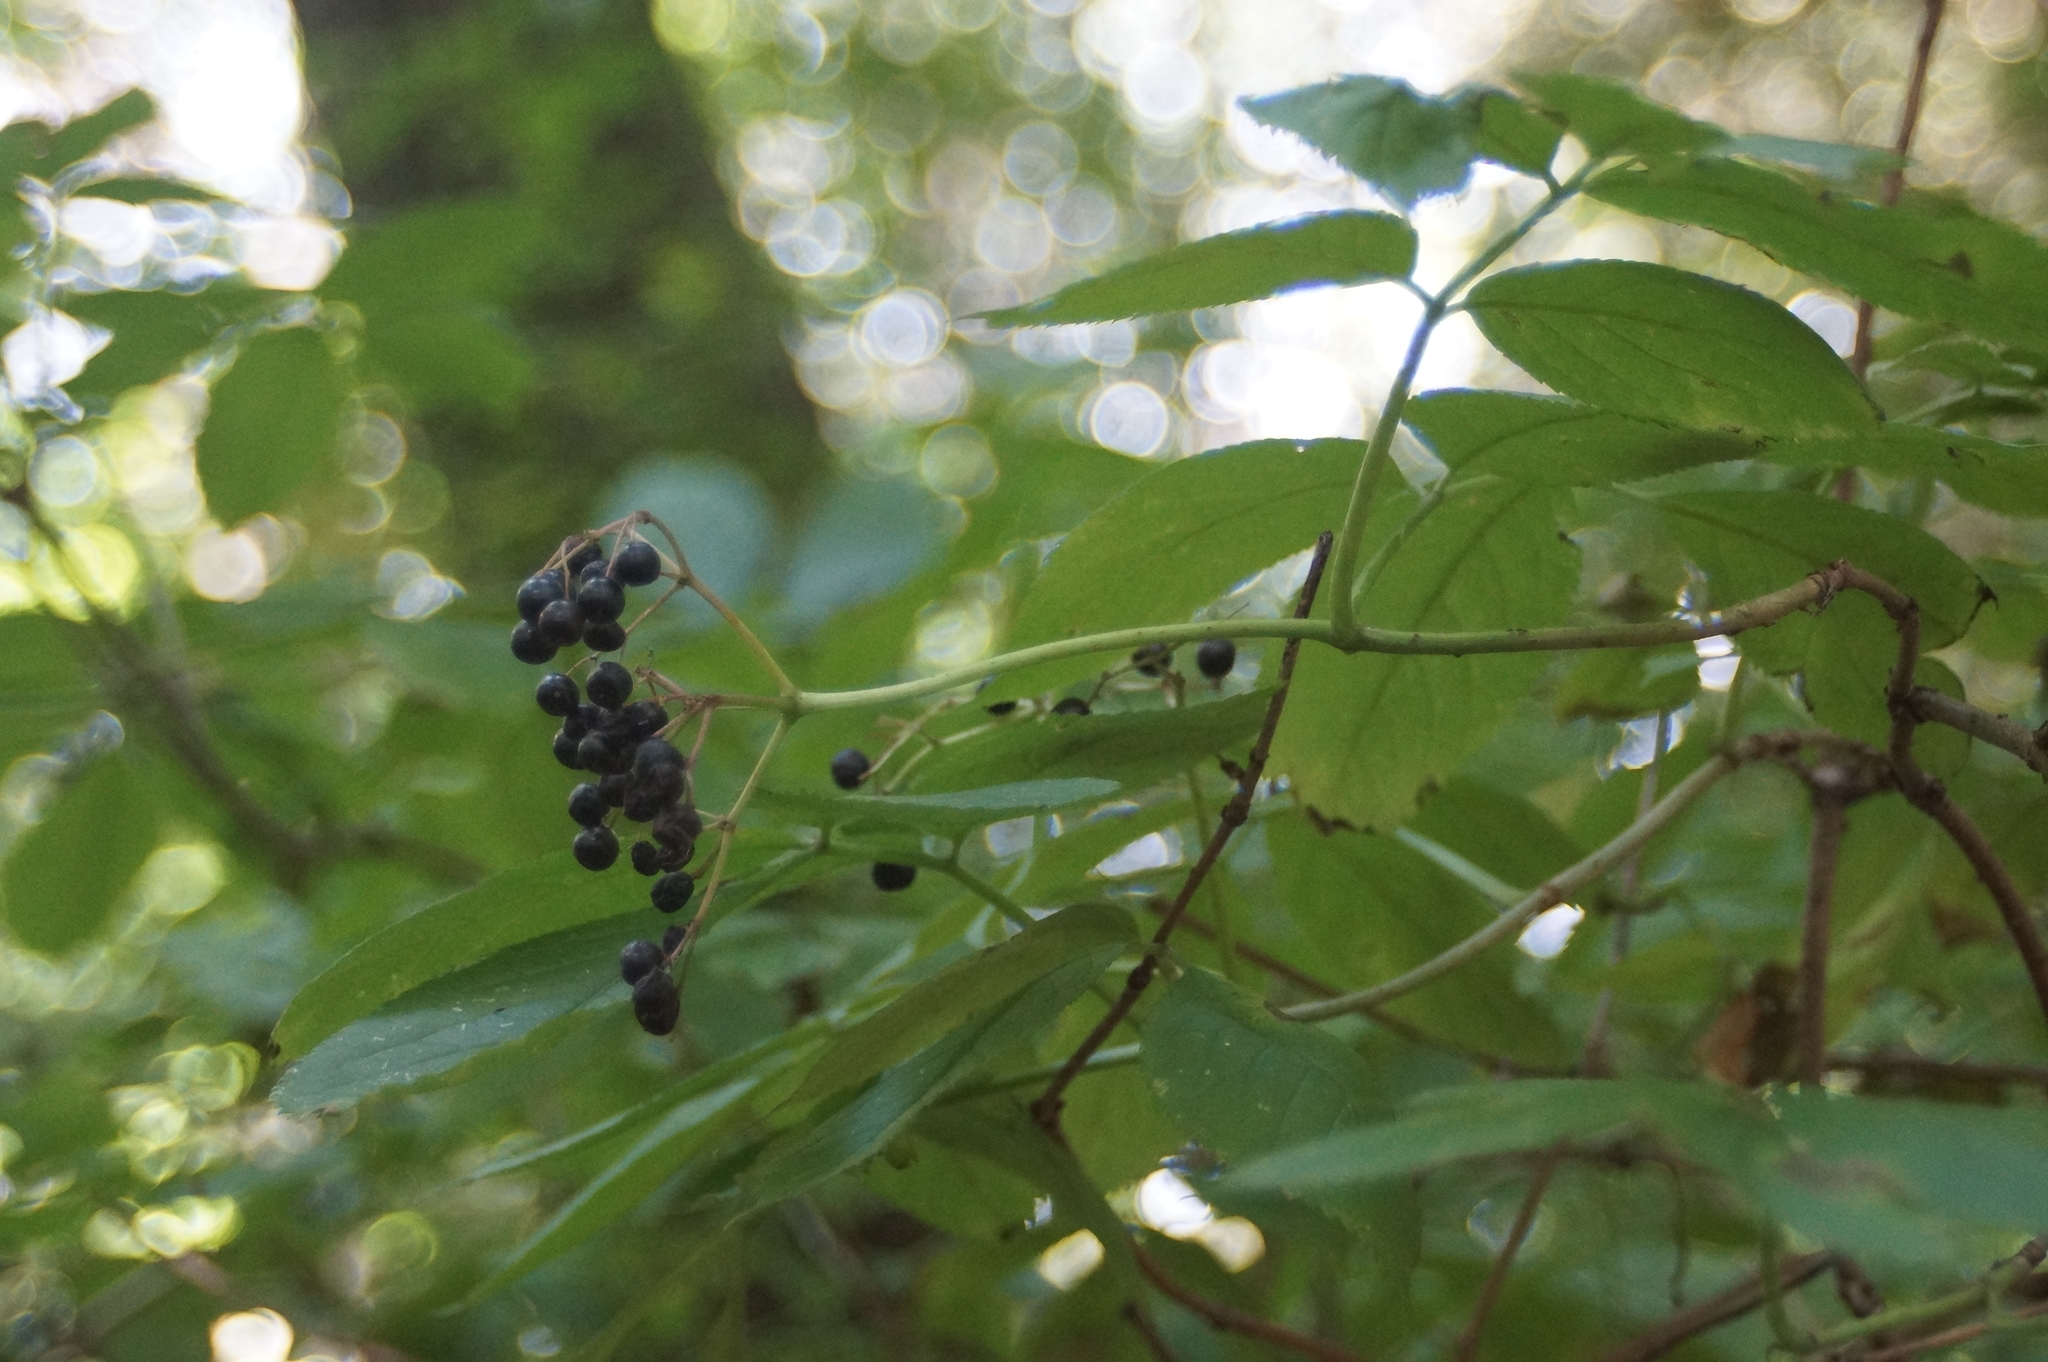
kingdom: Plantae
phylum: Tracheophyta
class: Magnoliopsida
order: Dipsacales
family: Viburnaceae
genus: Sambucus
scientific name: Sambucus nigra
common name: Elder
